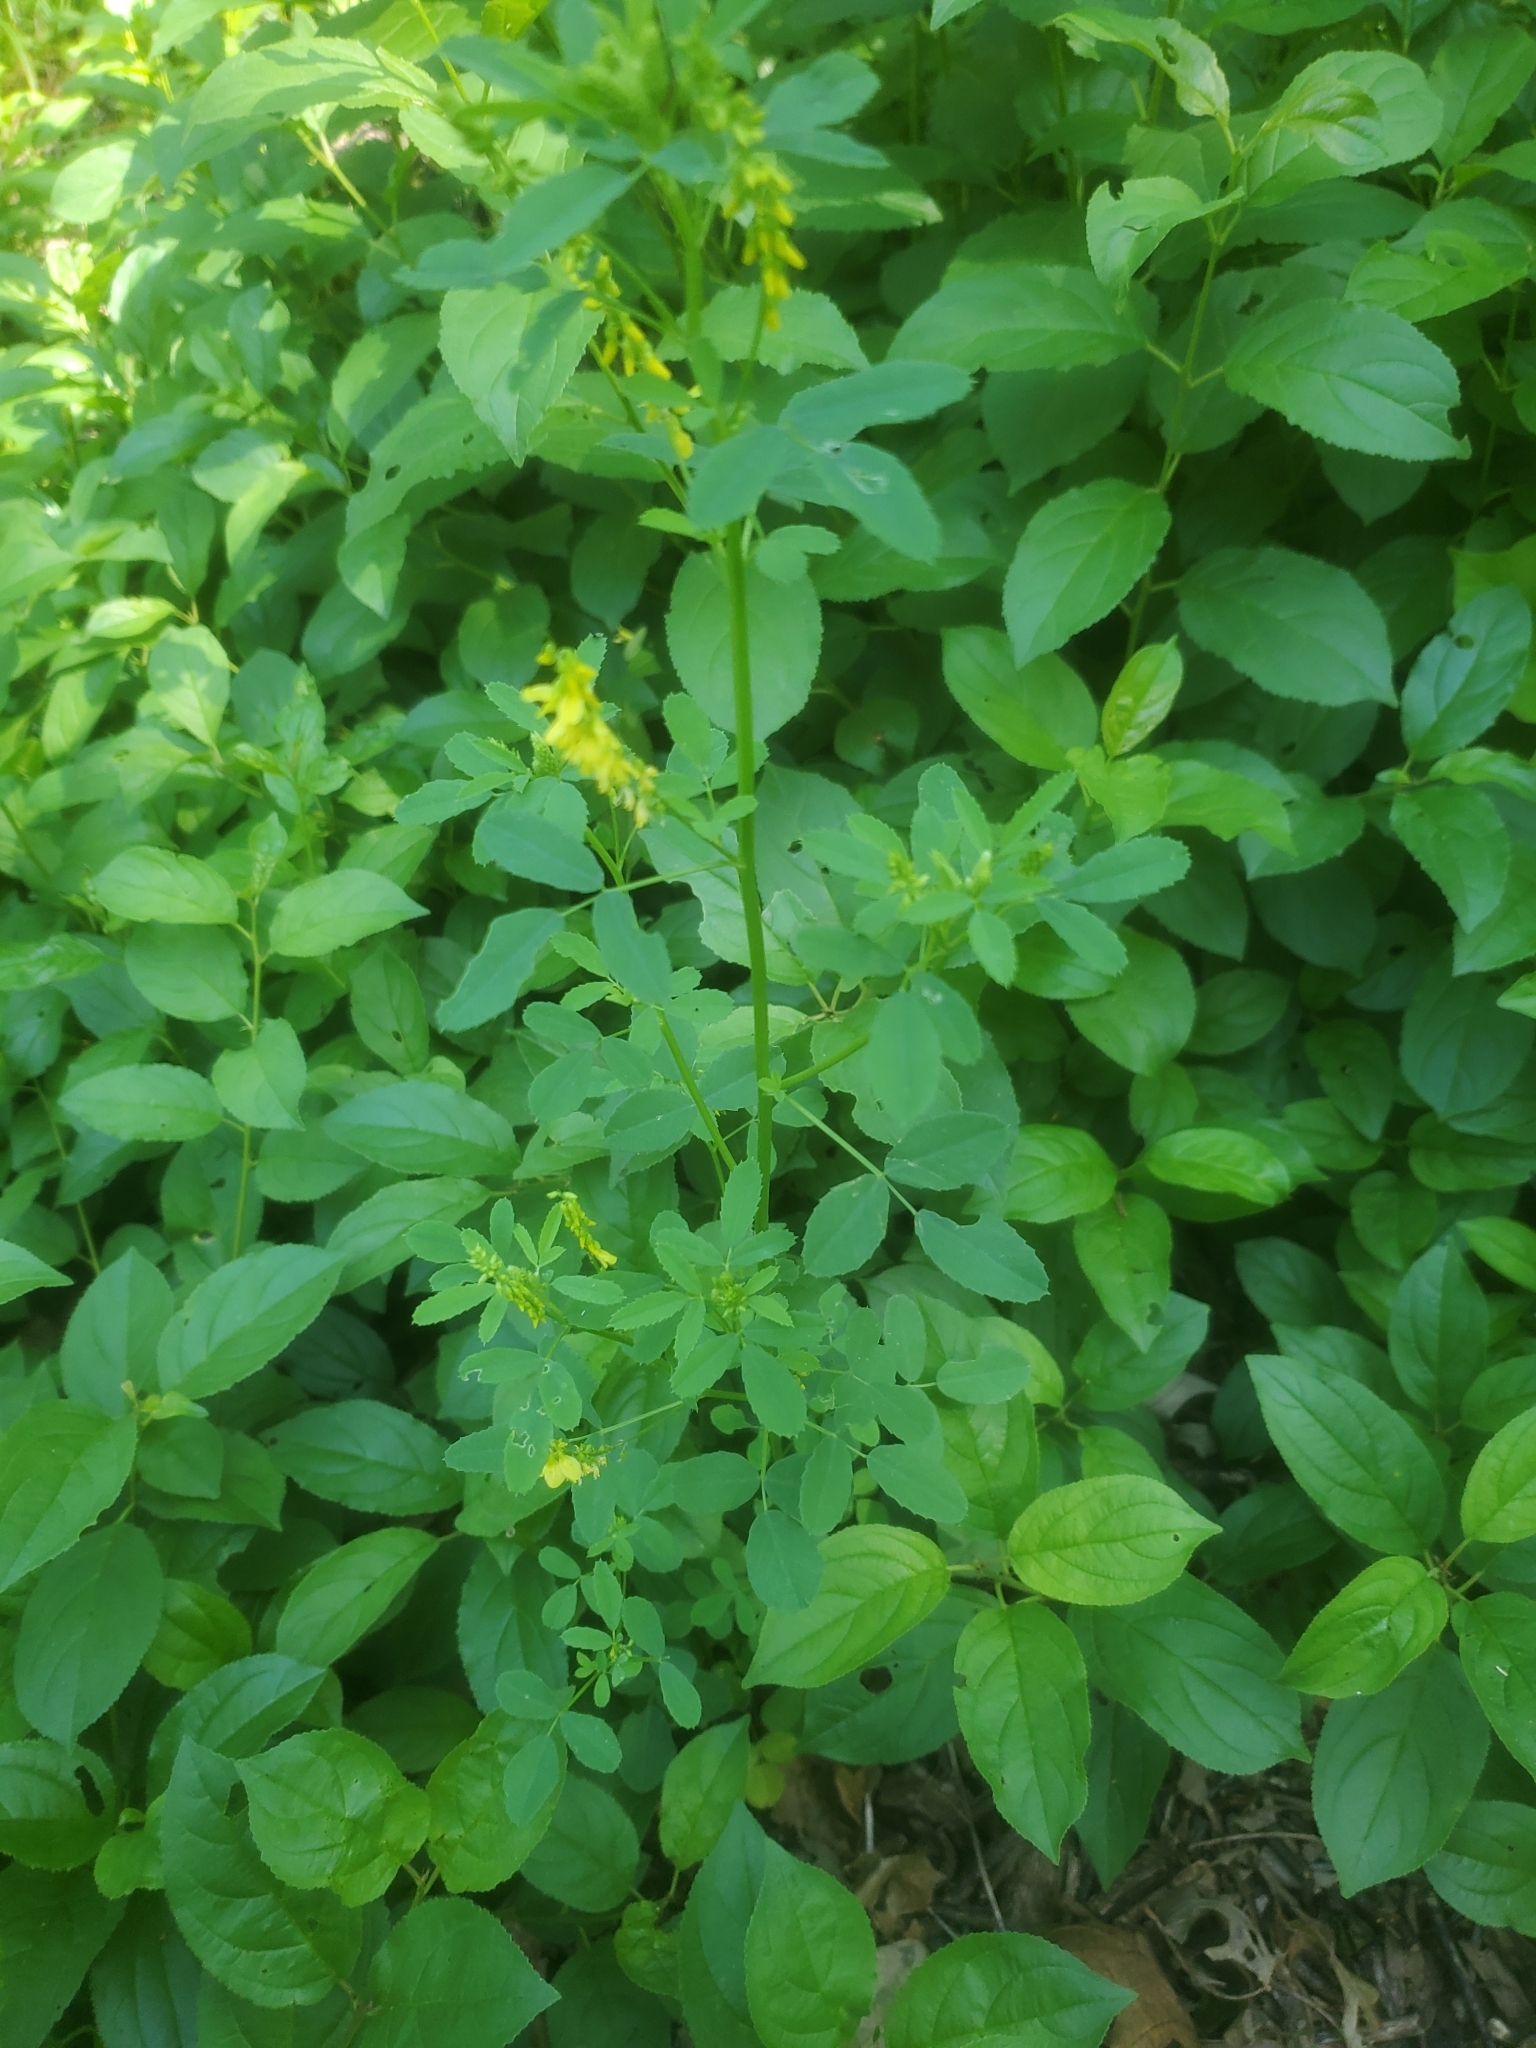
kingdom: Plantae
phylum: Tracheophyta
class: Magnoliopsida
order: Fabales
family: Fabaceae
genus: Melilotus
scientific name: Melilotus officinalis
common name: Sweetclover
